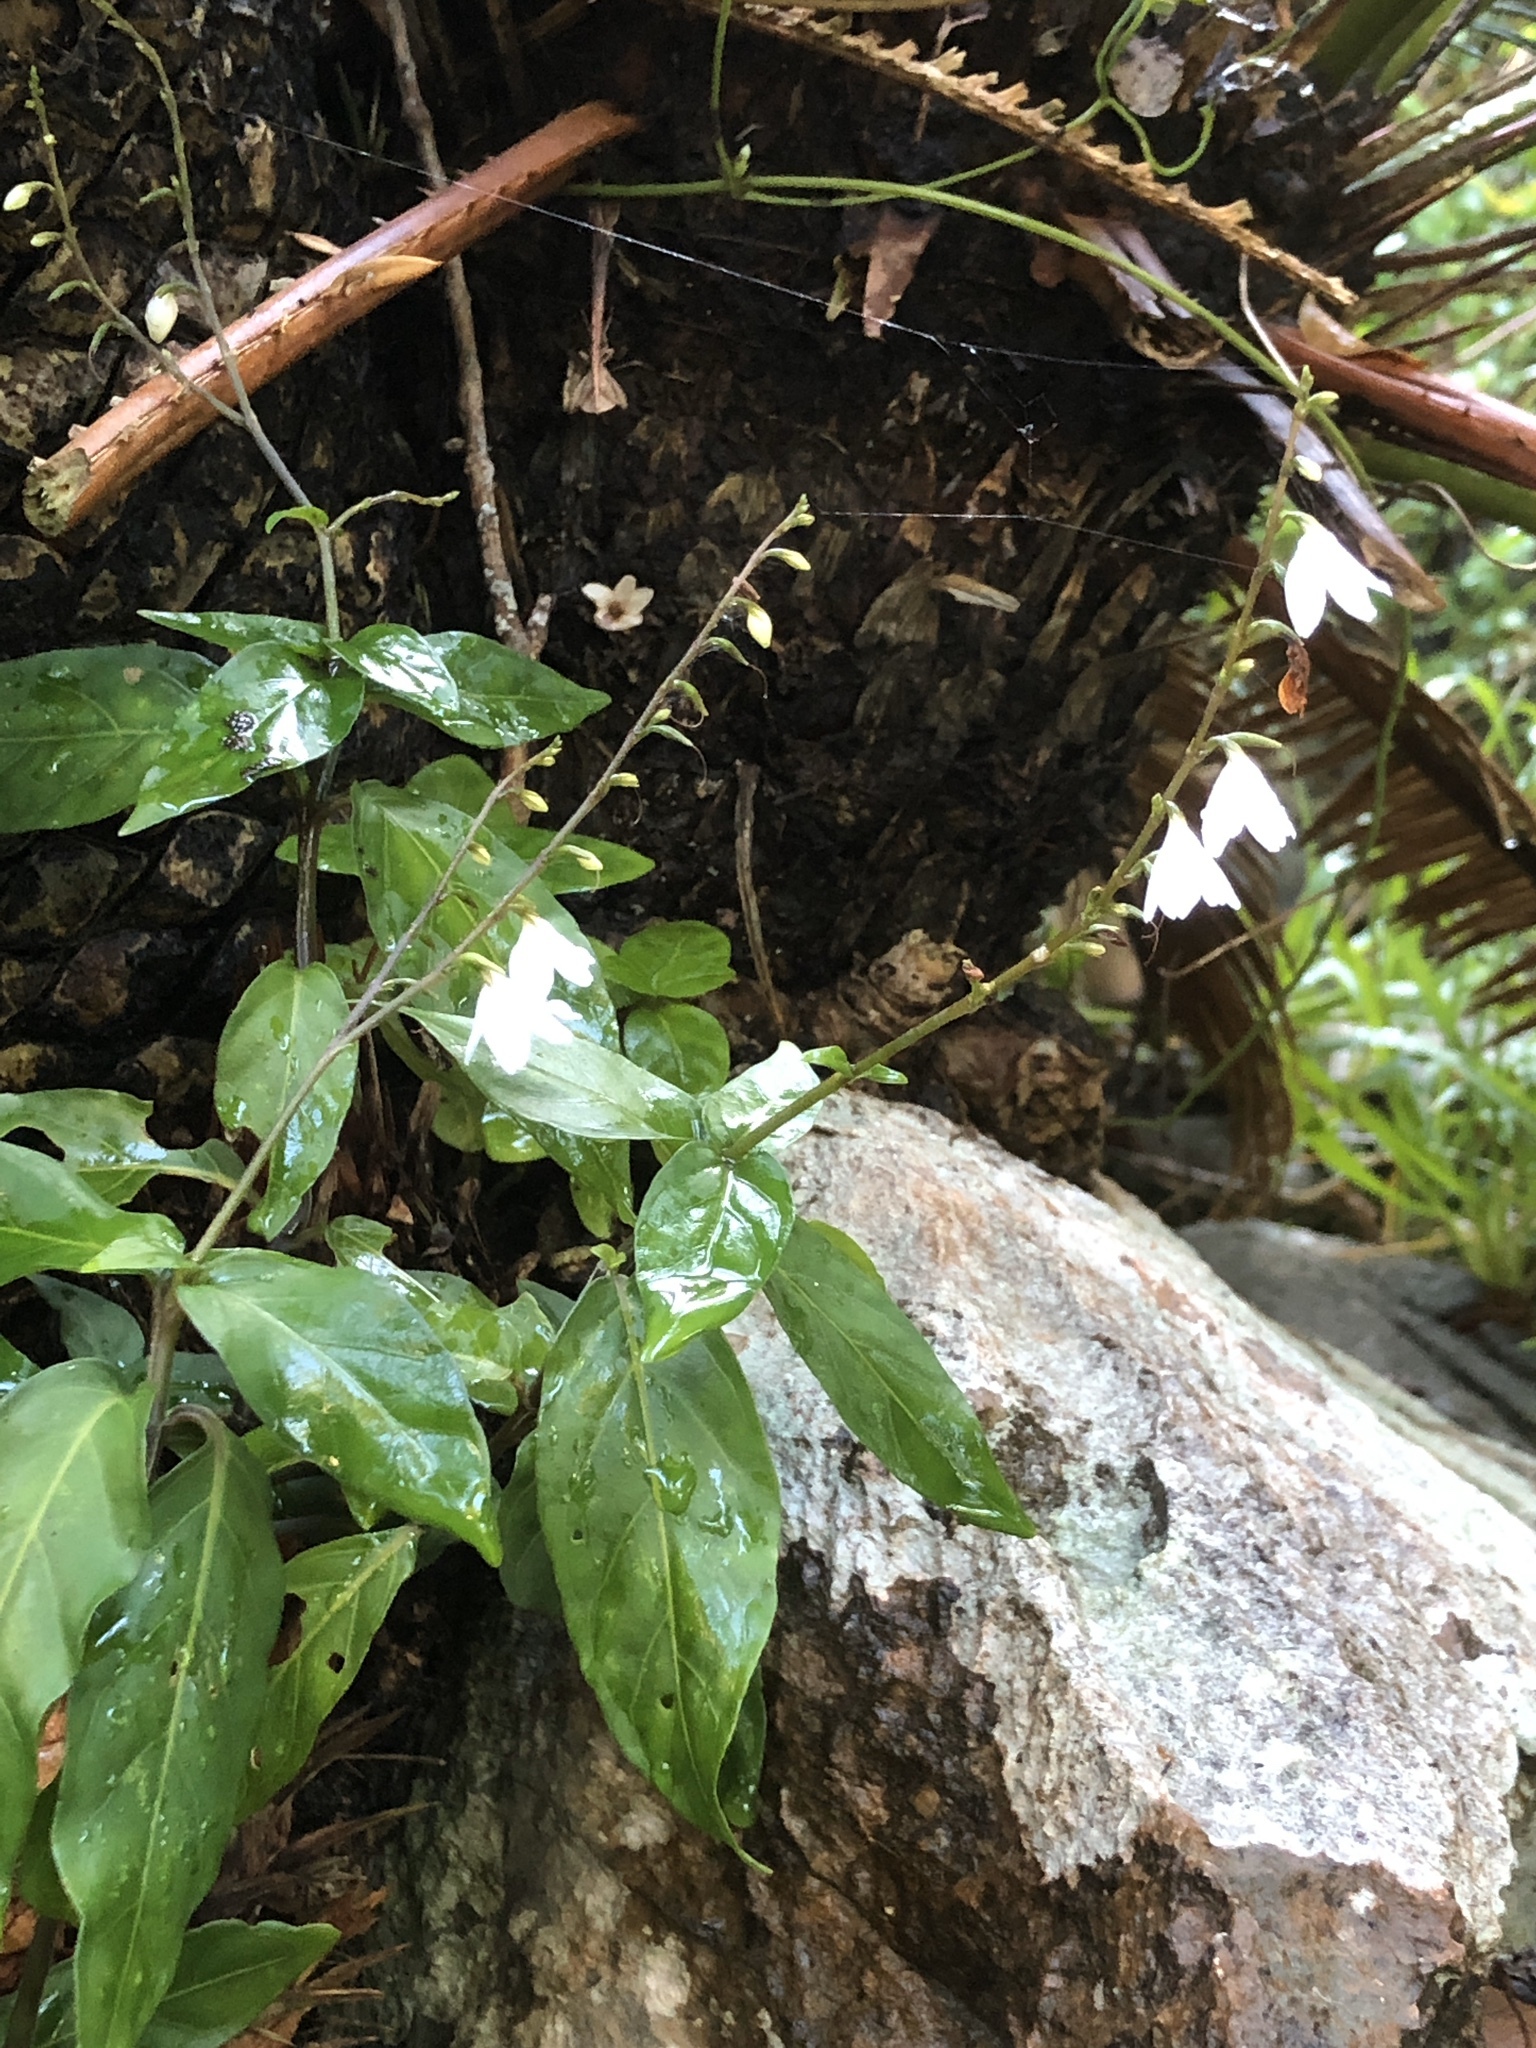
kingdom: Plantae
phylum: Tracheophyta
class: Magnoliopsida
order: Lamiales
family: Acanthaceae
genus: Codonacanthus
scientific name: Codonacanthus pauciflorus
